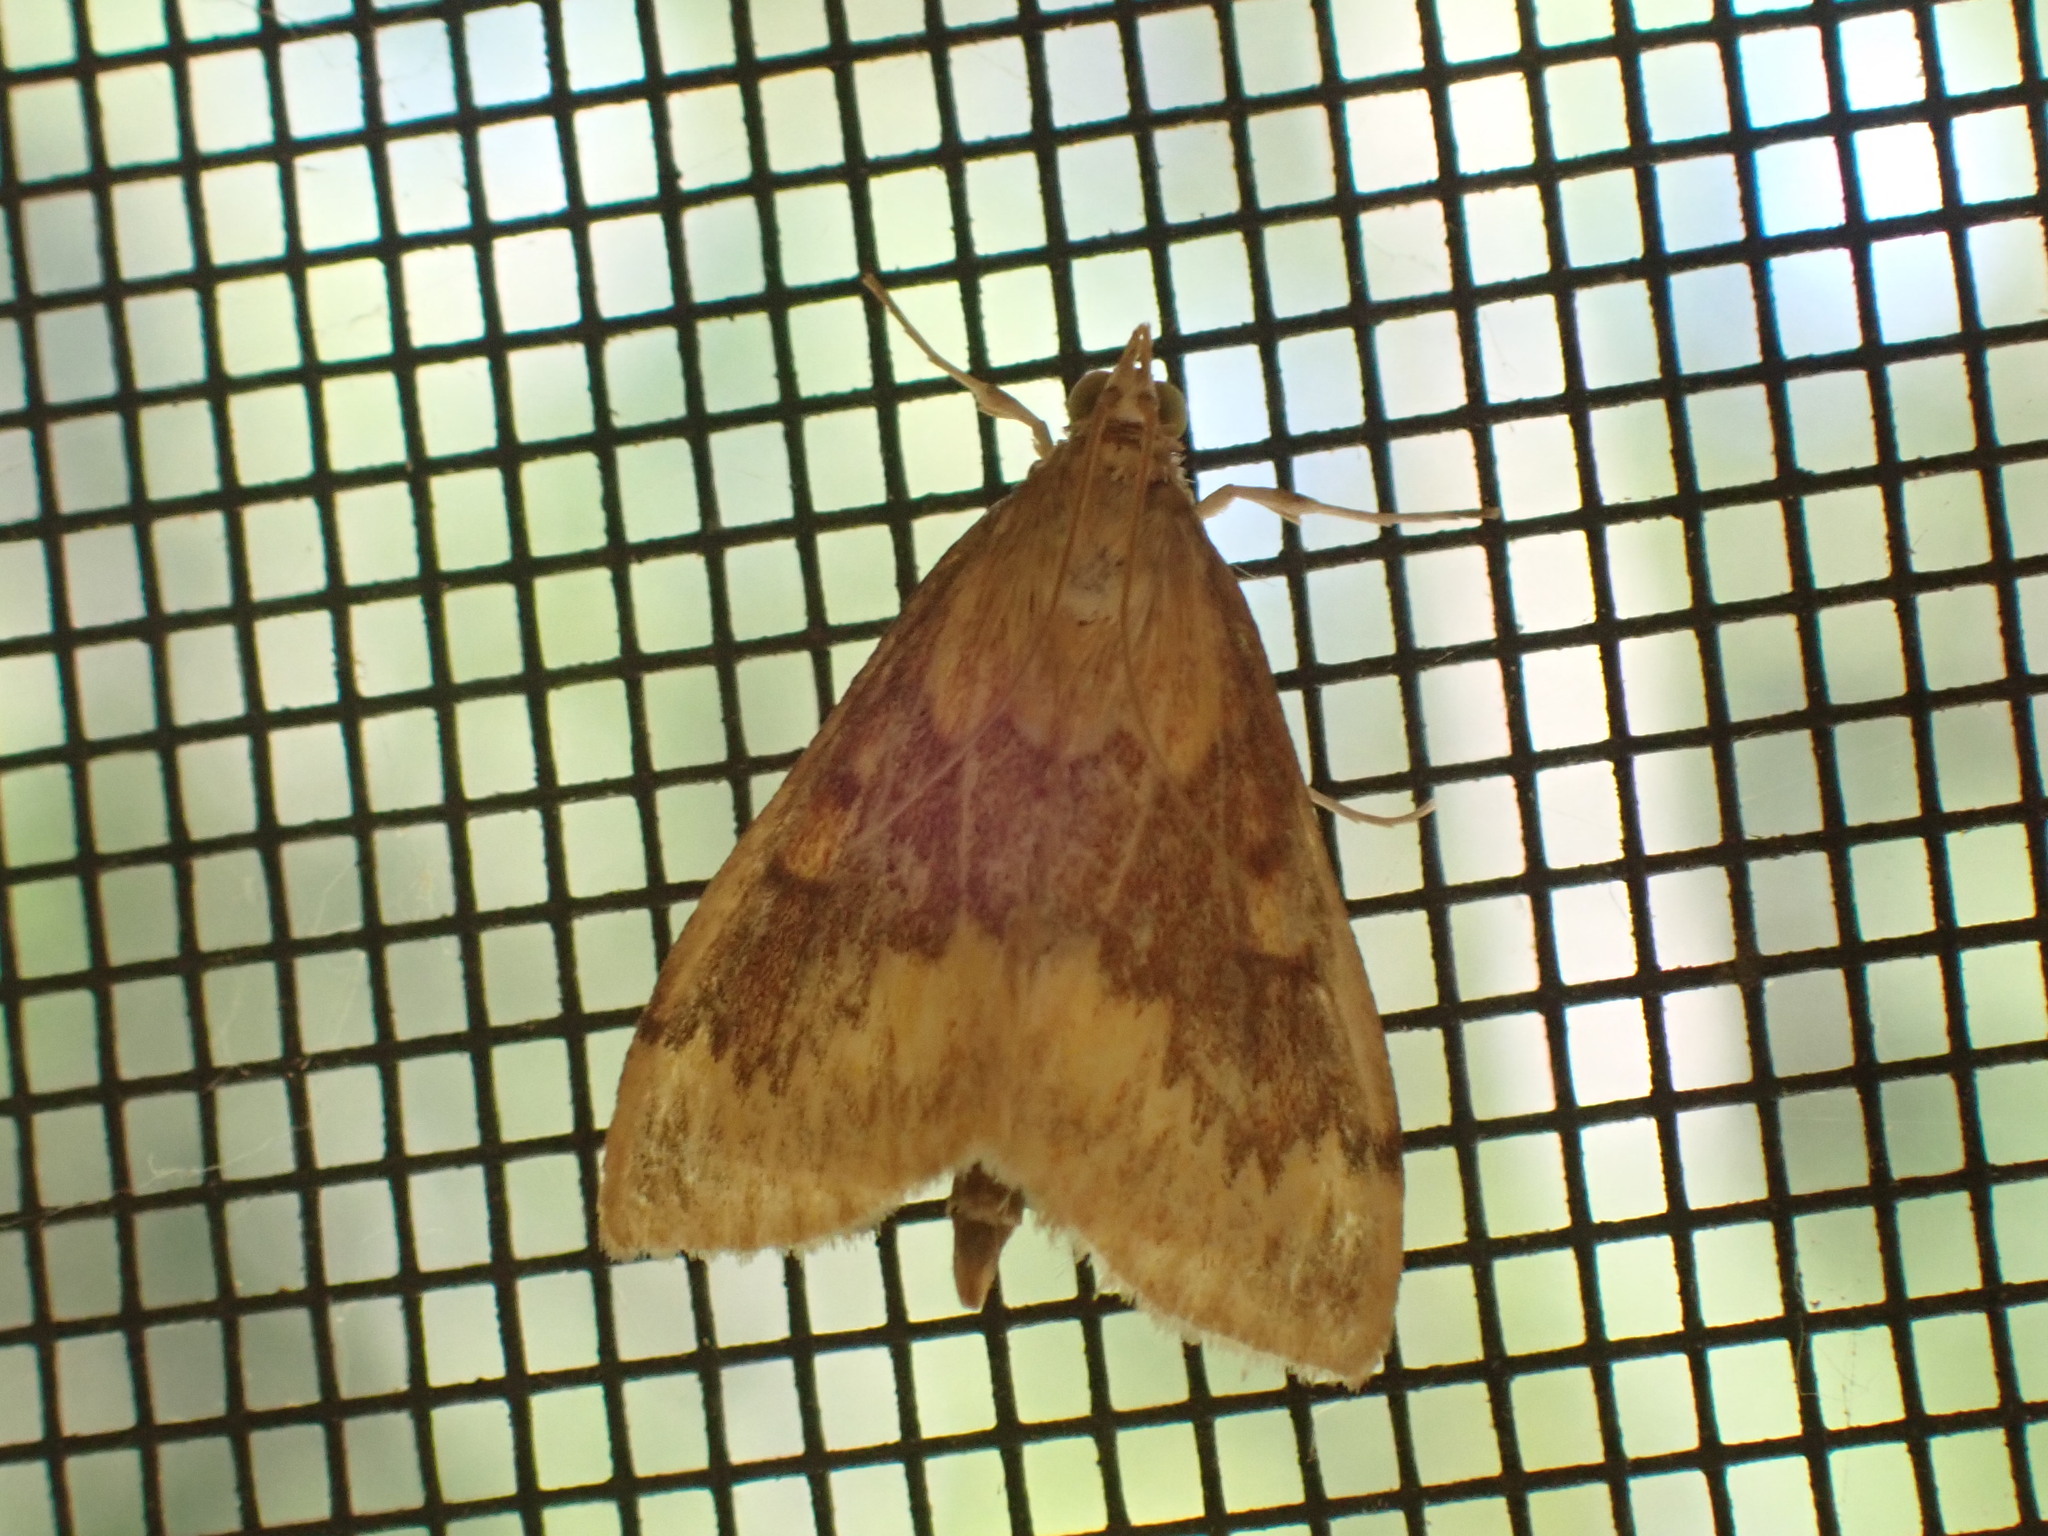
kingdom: Animalia
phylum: Arthropoda
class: Insecta
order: Lepidoptera
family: Crambidae
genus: Ostrinia
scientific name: Ostrinia nubilalis
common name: European corn borer
